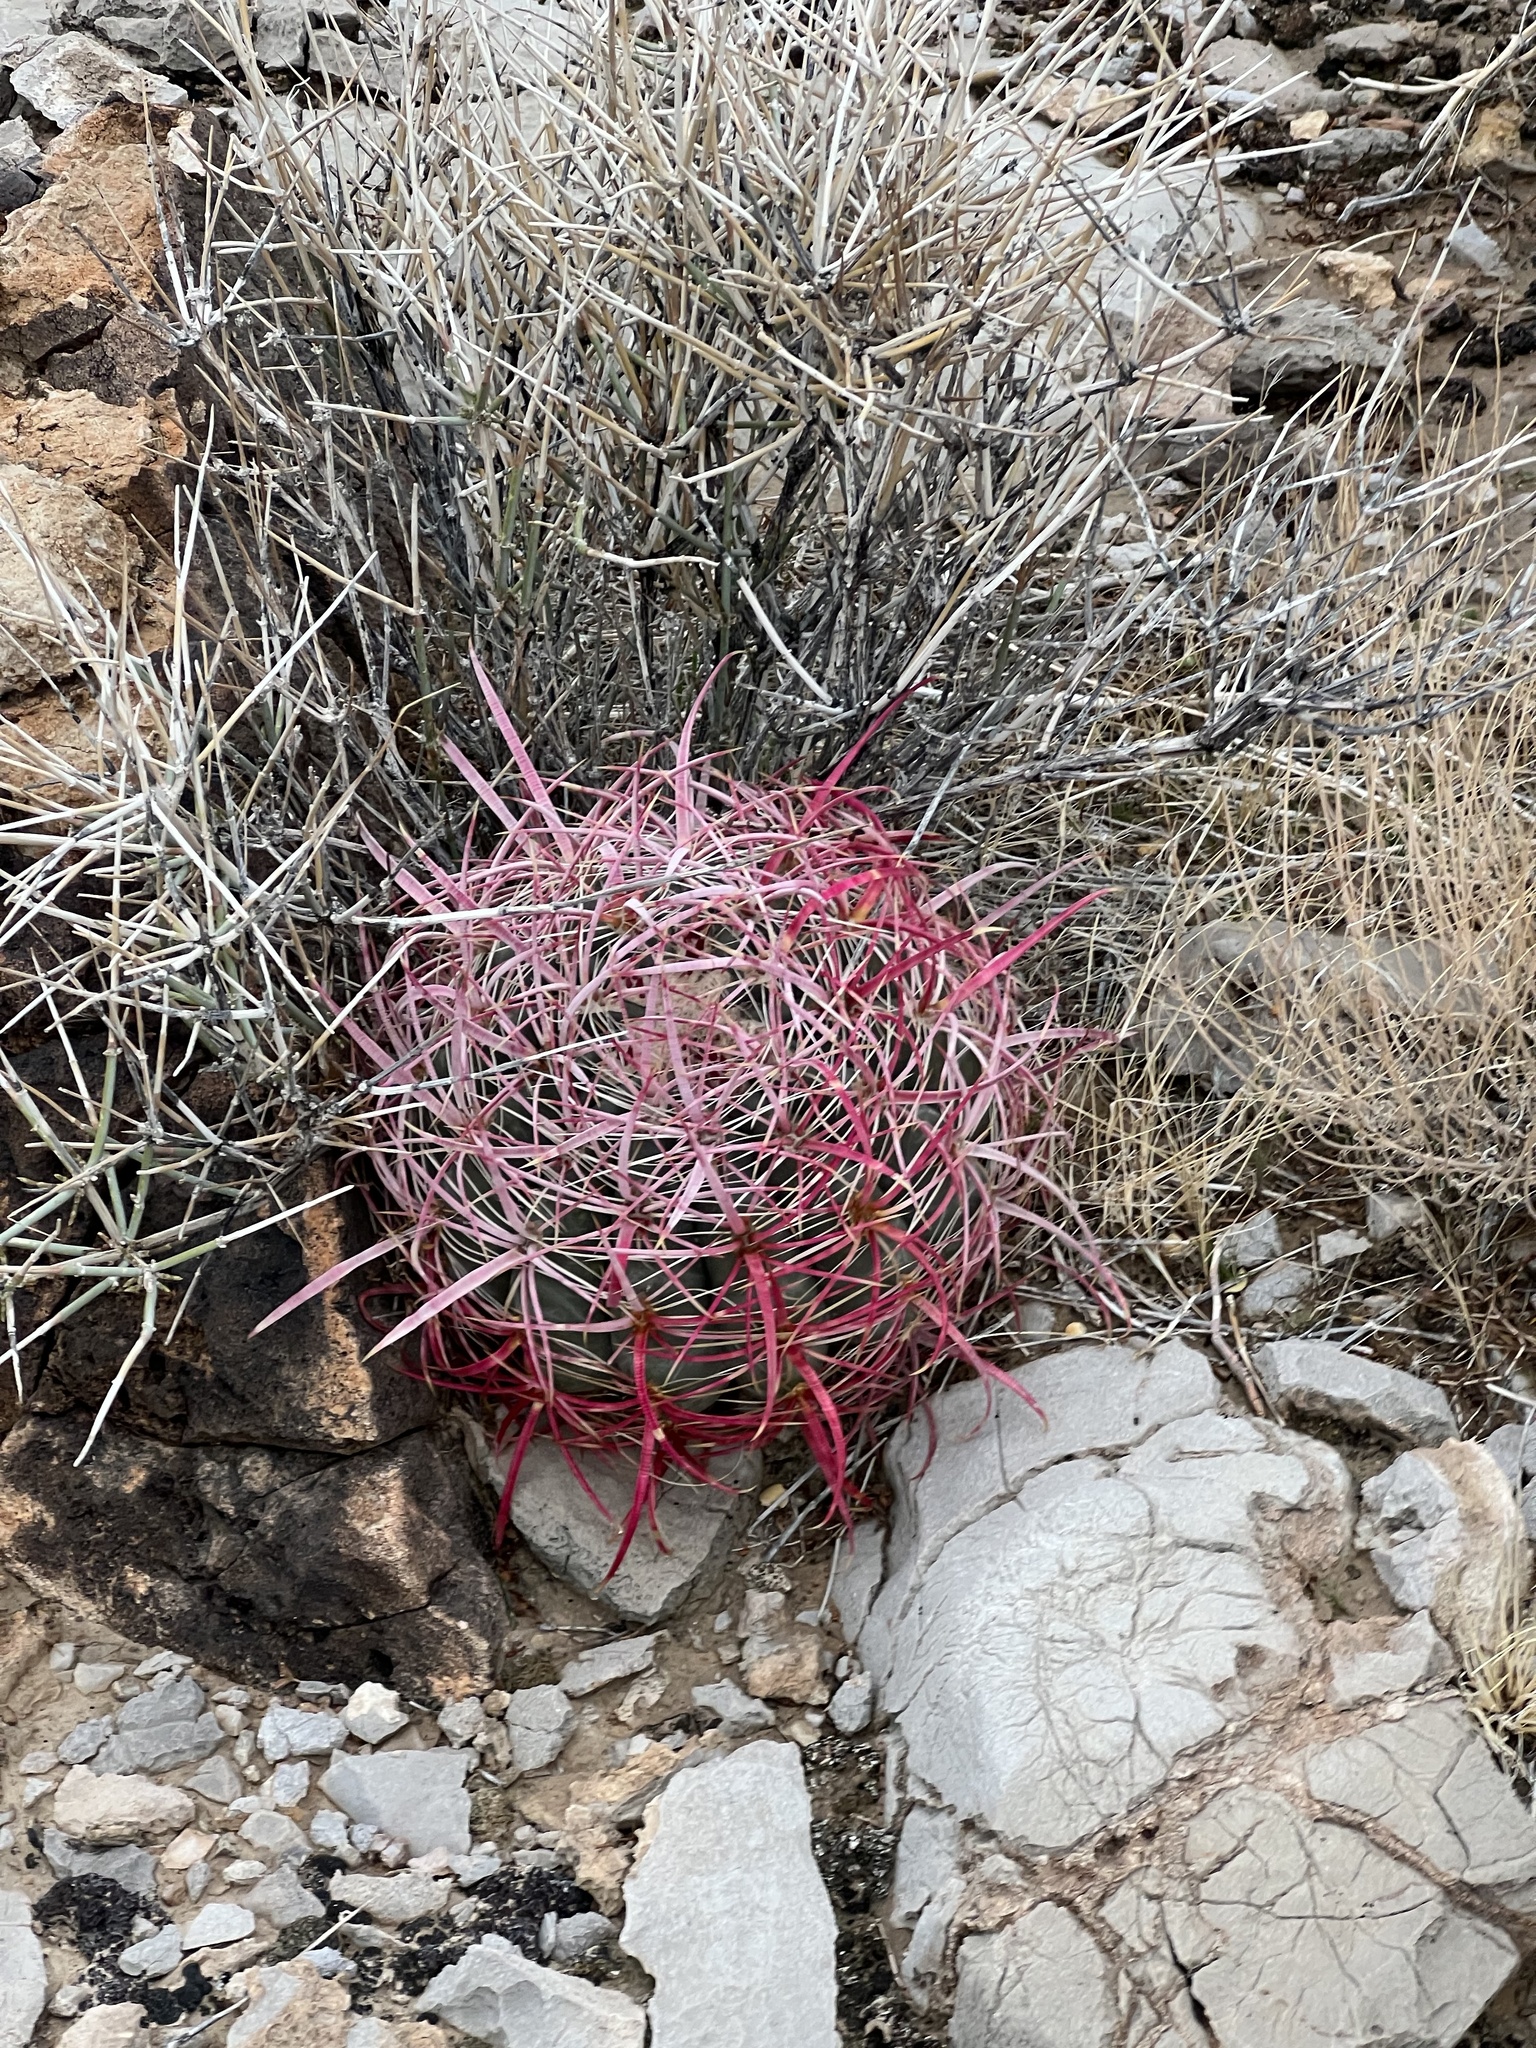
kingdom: Plantae
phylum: Tracheophyta
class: Magnoliopsida
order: Caryophyllales
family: Cactaceae
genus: Ferocactus
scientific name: Ferocactus cylindraceus
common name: California barrel cactus
